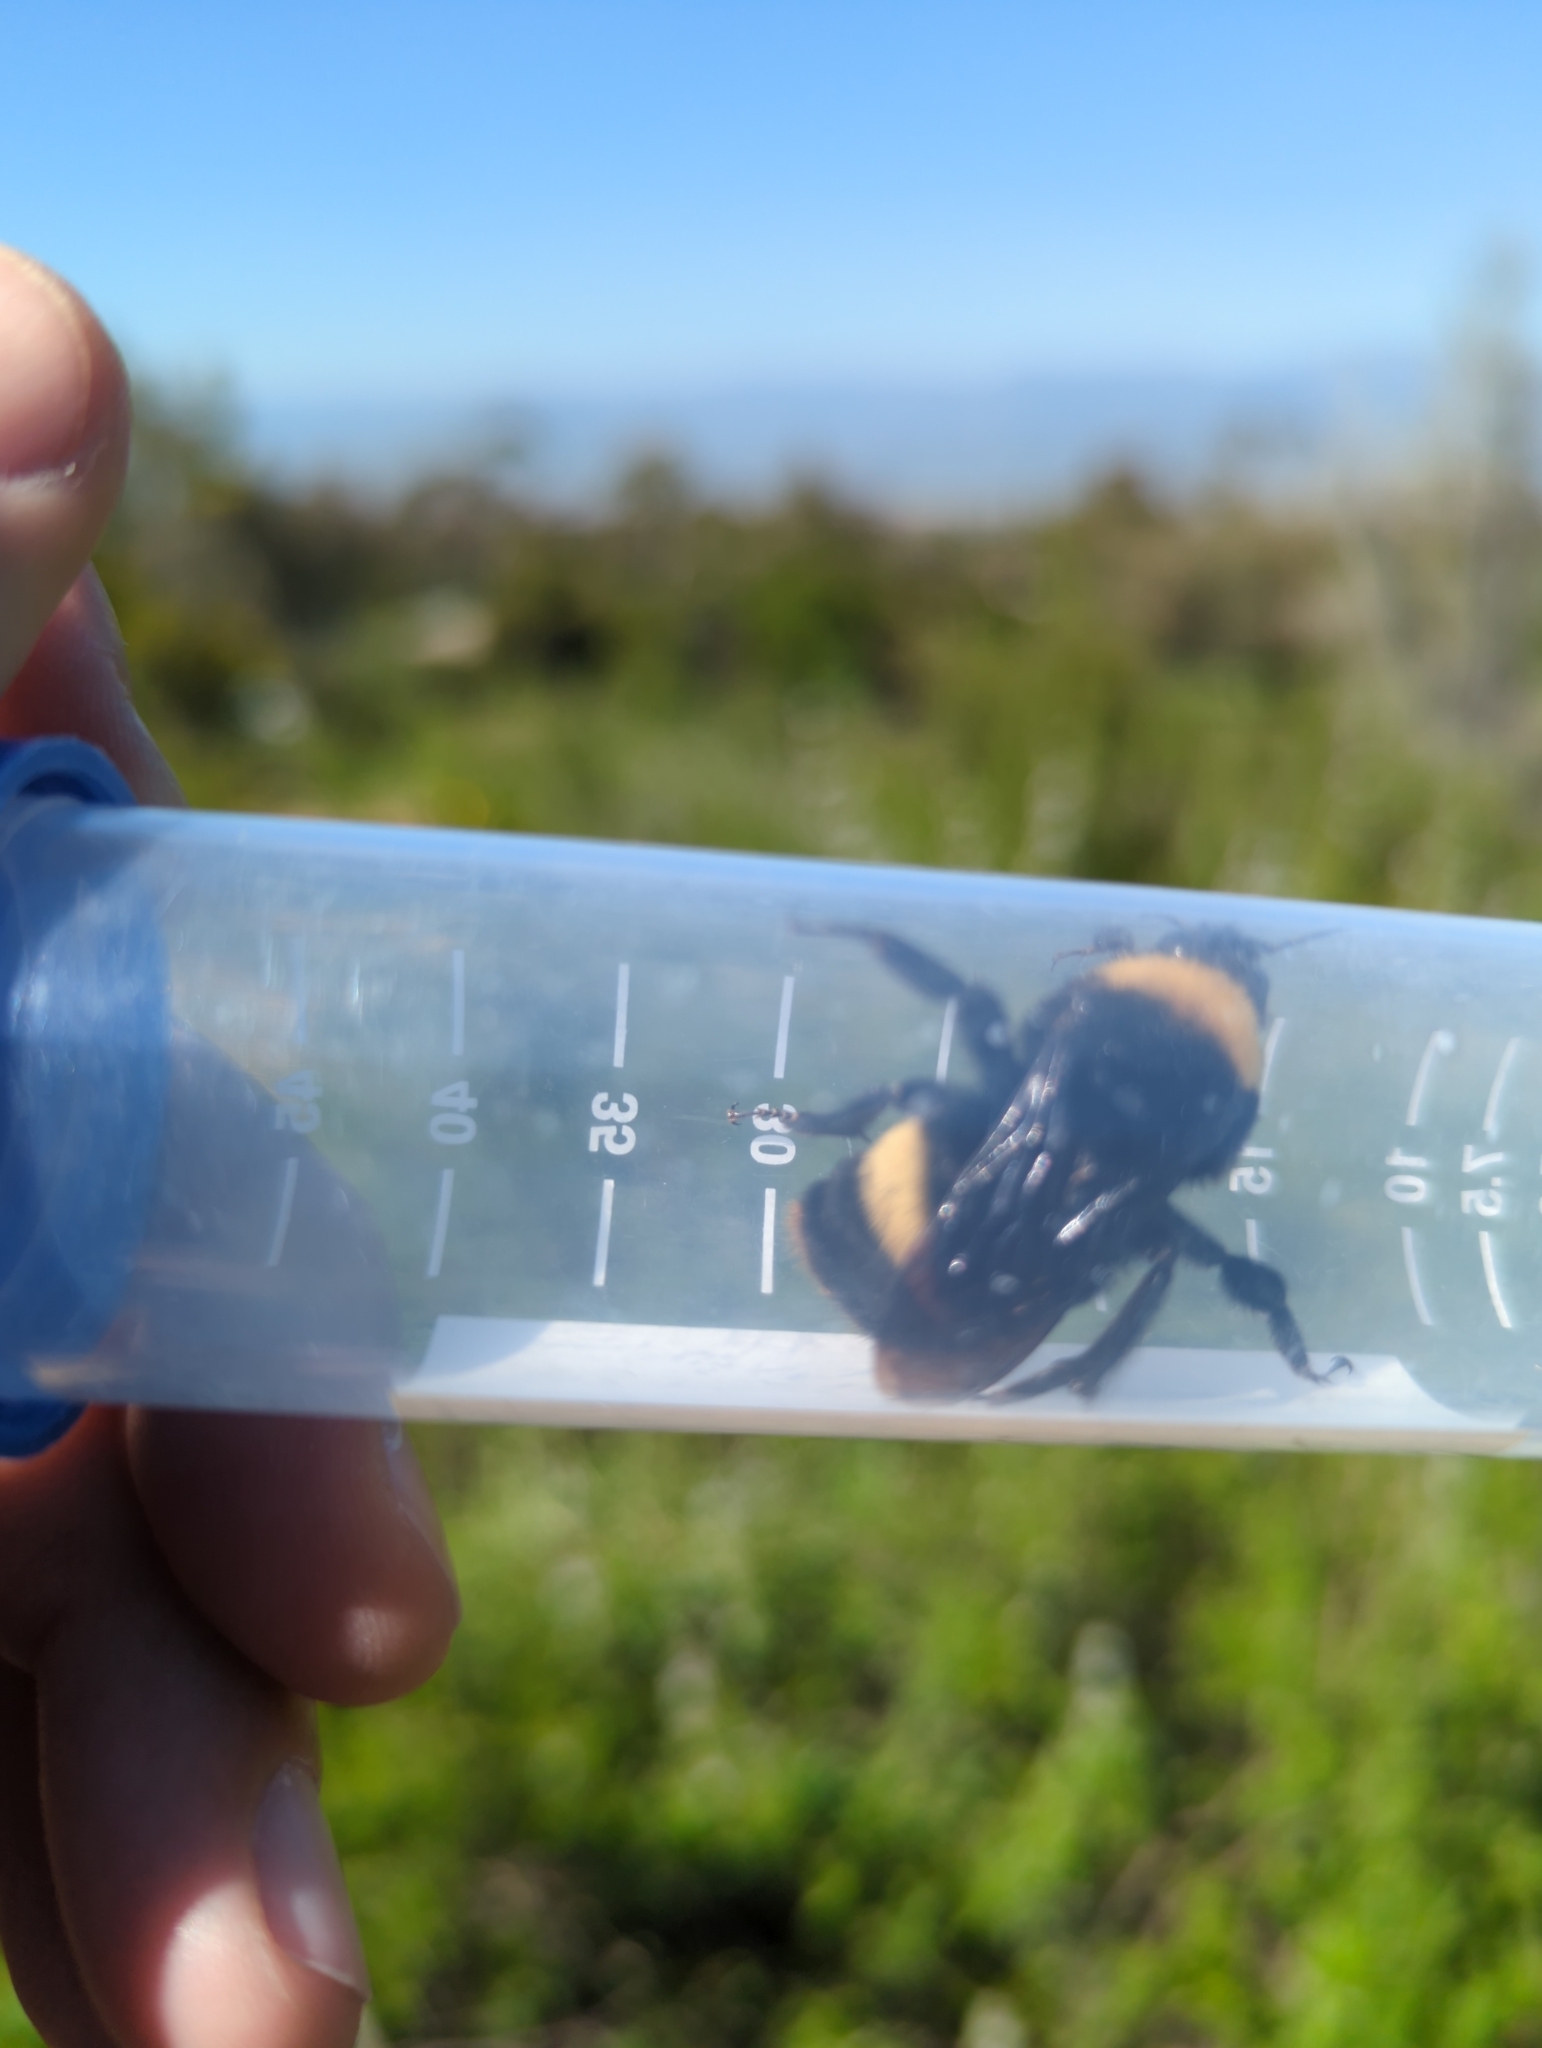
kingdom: Animalia
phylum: Arthropoda
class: Insecta
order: Hymenoptera
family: Apidae
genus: Bombus
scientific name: Bombus crotchii
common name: Crotch bumble bee
